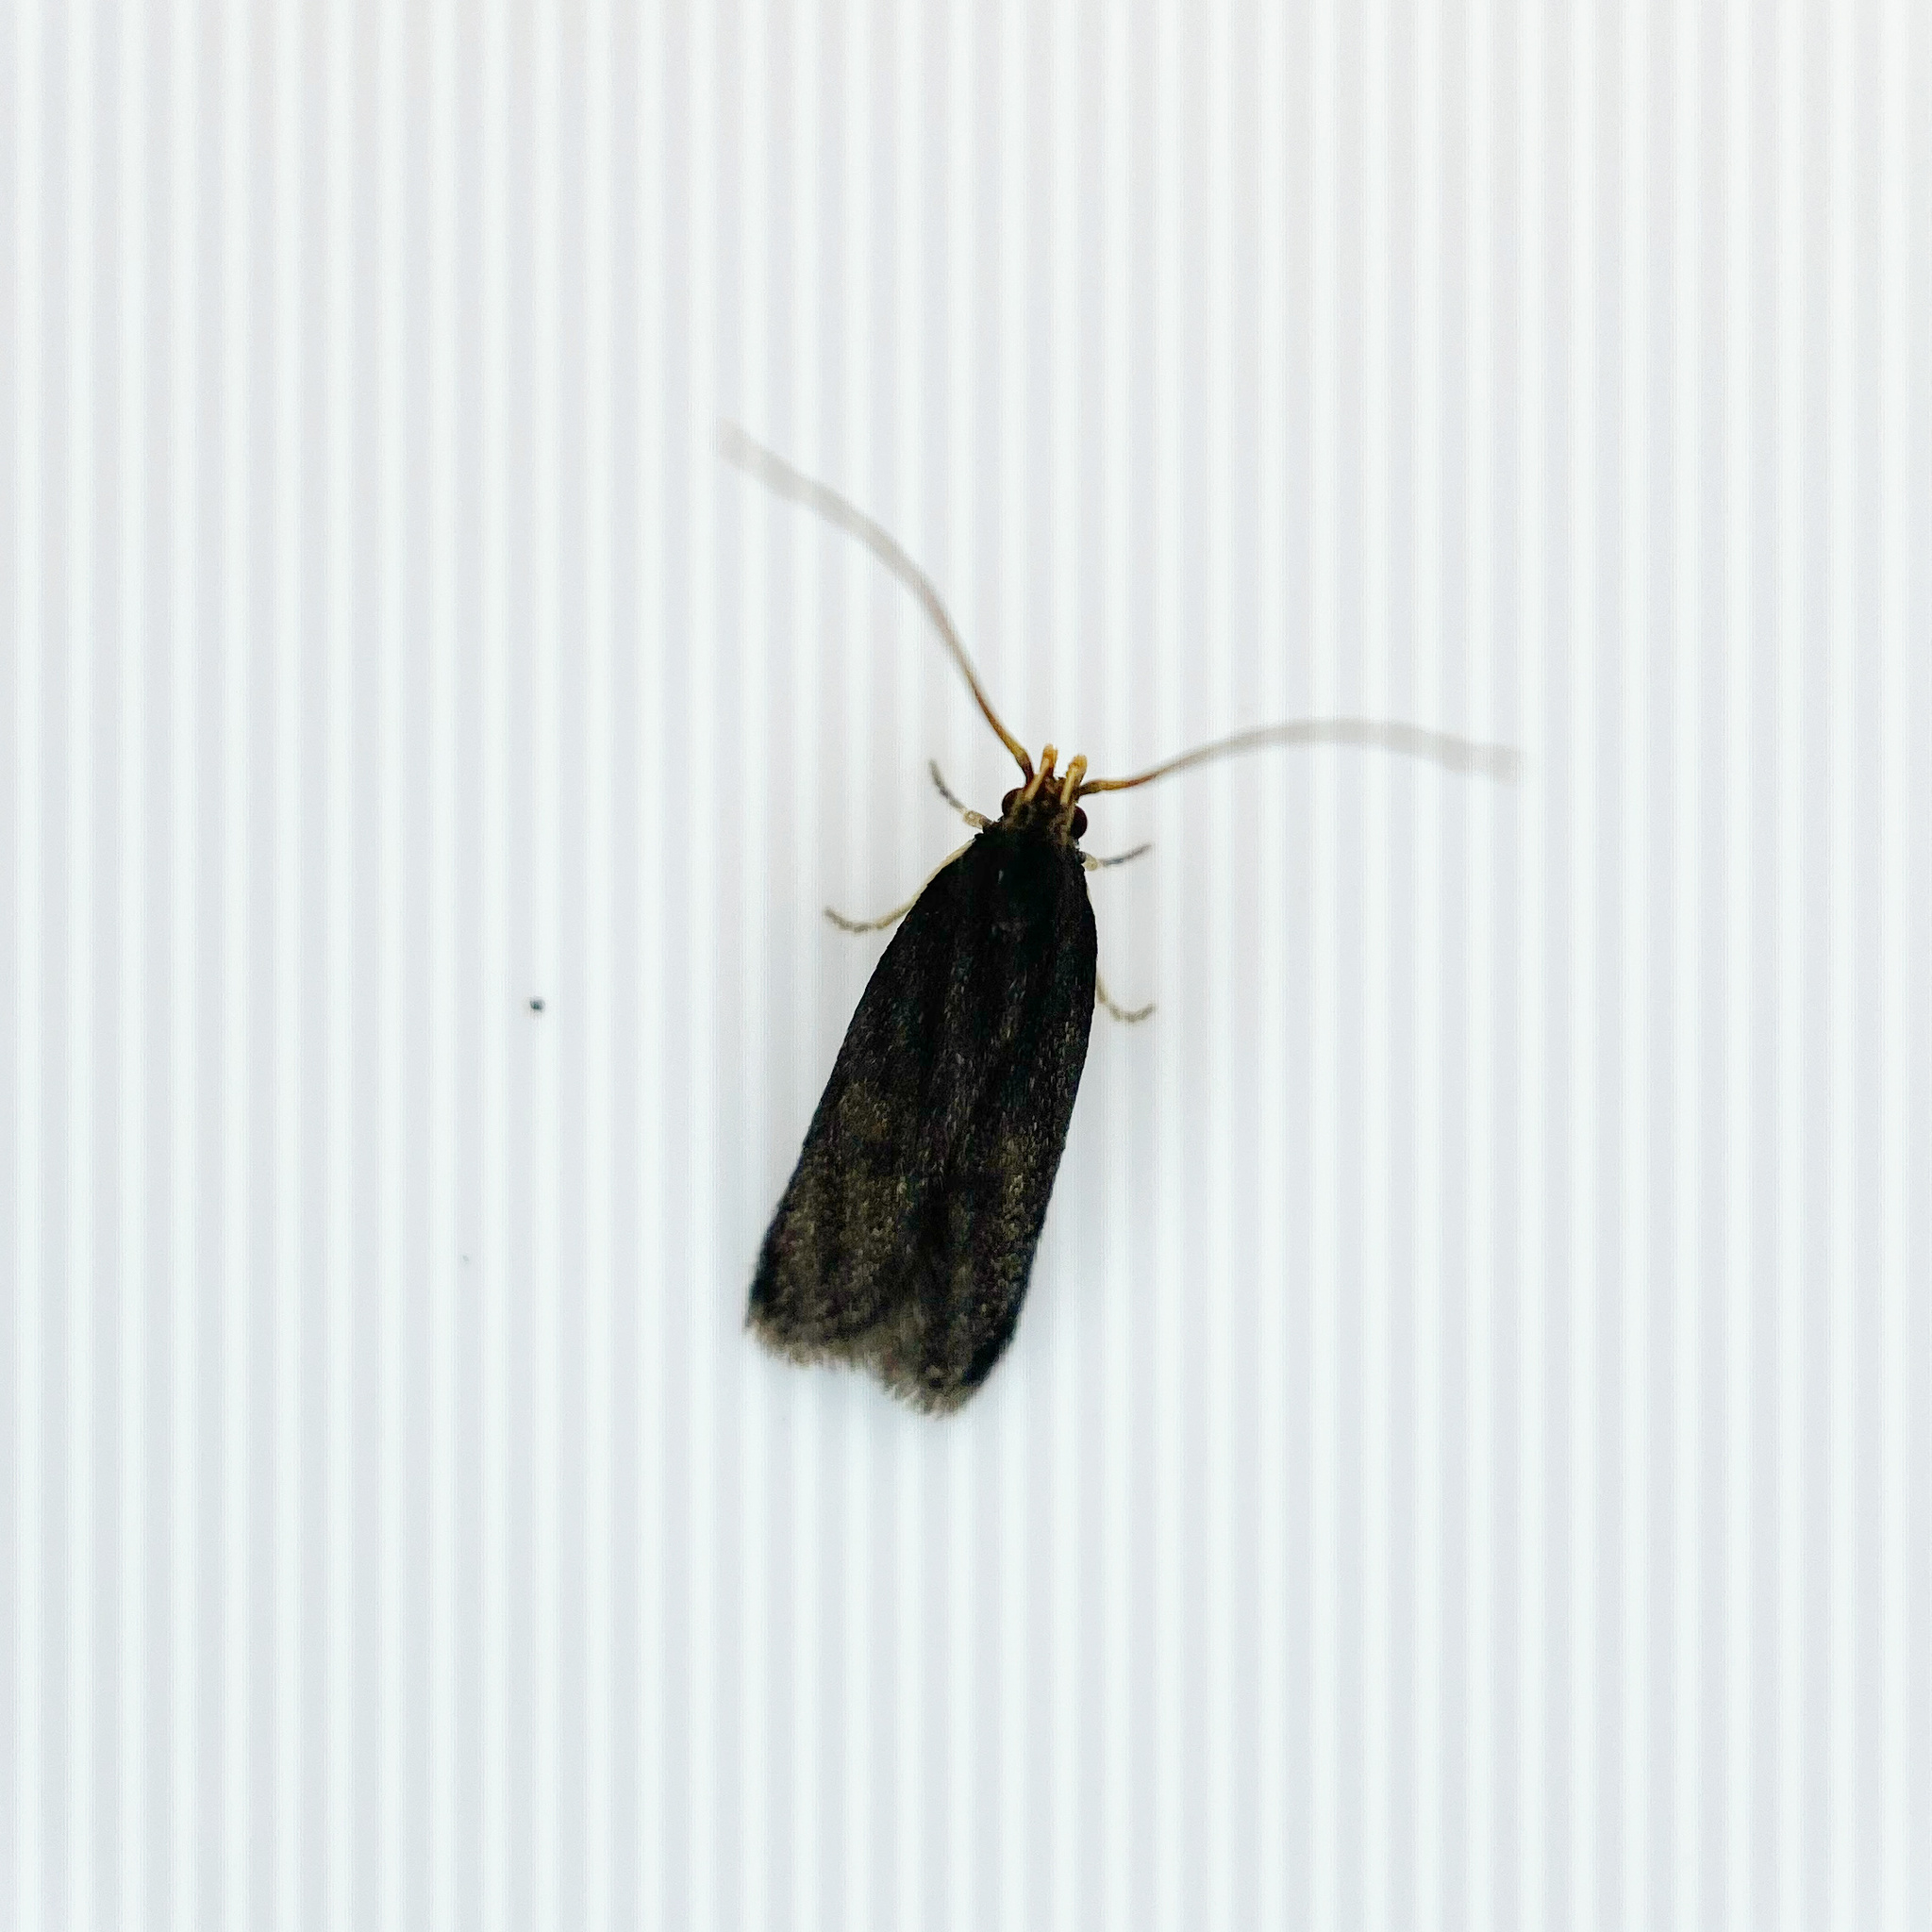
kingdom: Animalia
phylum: Arthropoda
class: Insecta
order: Lepidoptera
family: Lecithoceridae
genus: Lecithocera
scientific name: Lecithocera micromela
